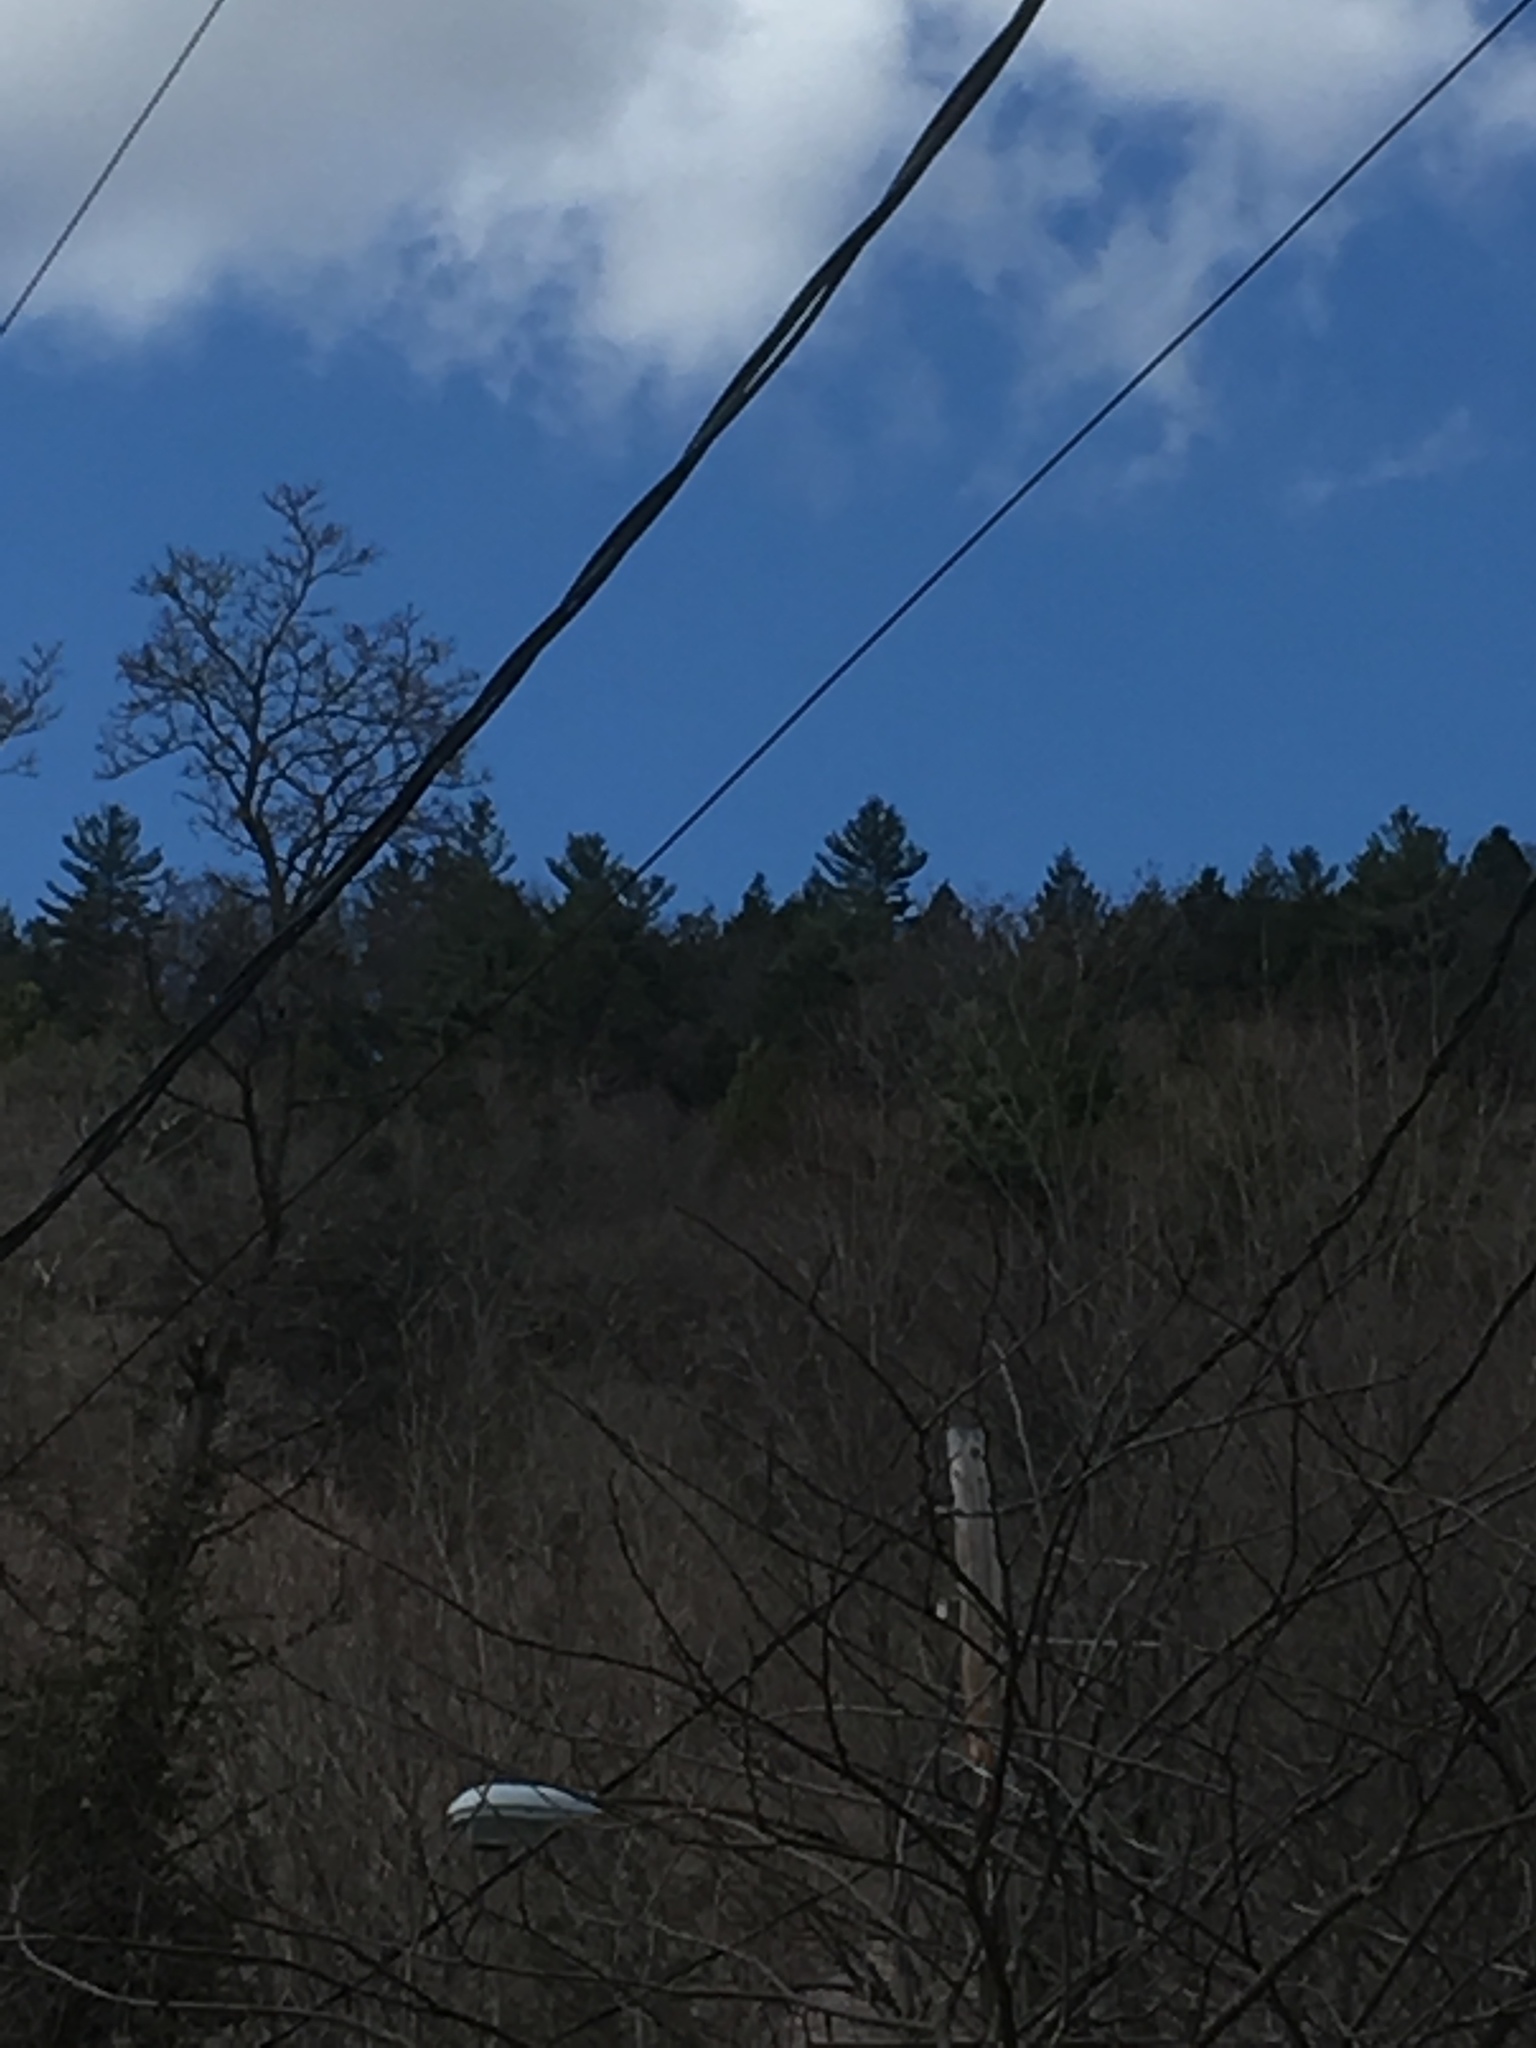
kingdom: Plantae
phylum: Tracheophyta
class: Pinopsida
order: Pinales
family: Pinaceae
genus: Pinus
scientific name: Pinus strobus
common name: Weymouth pine
